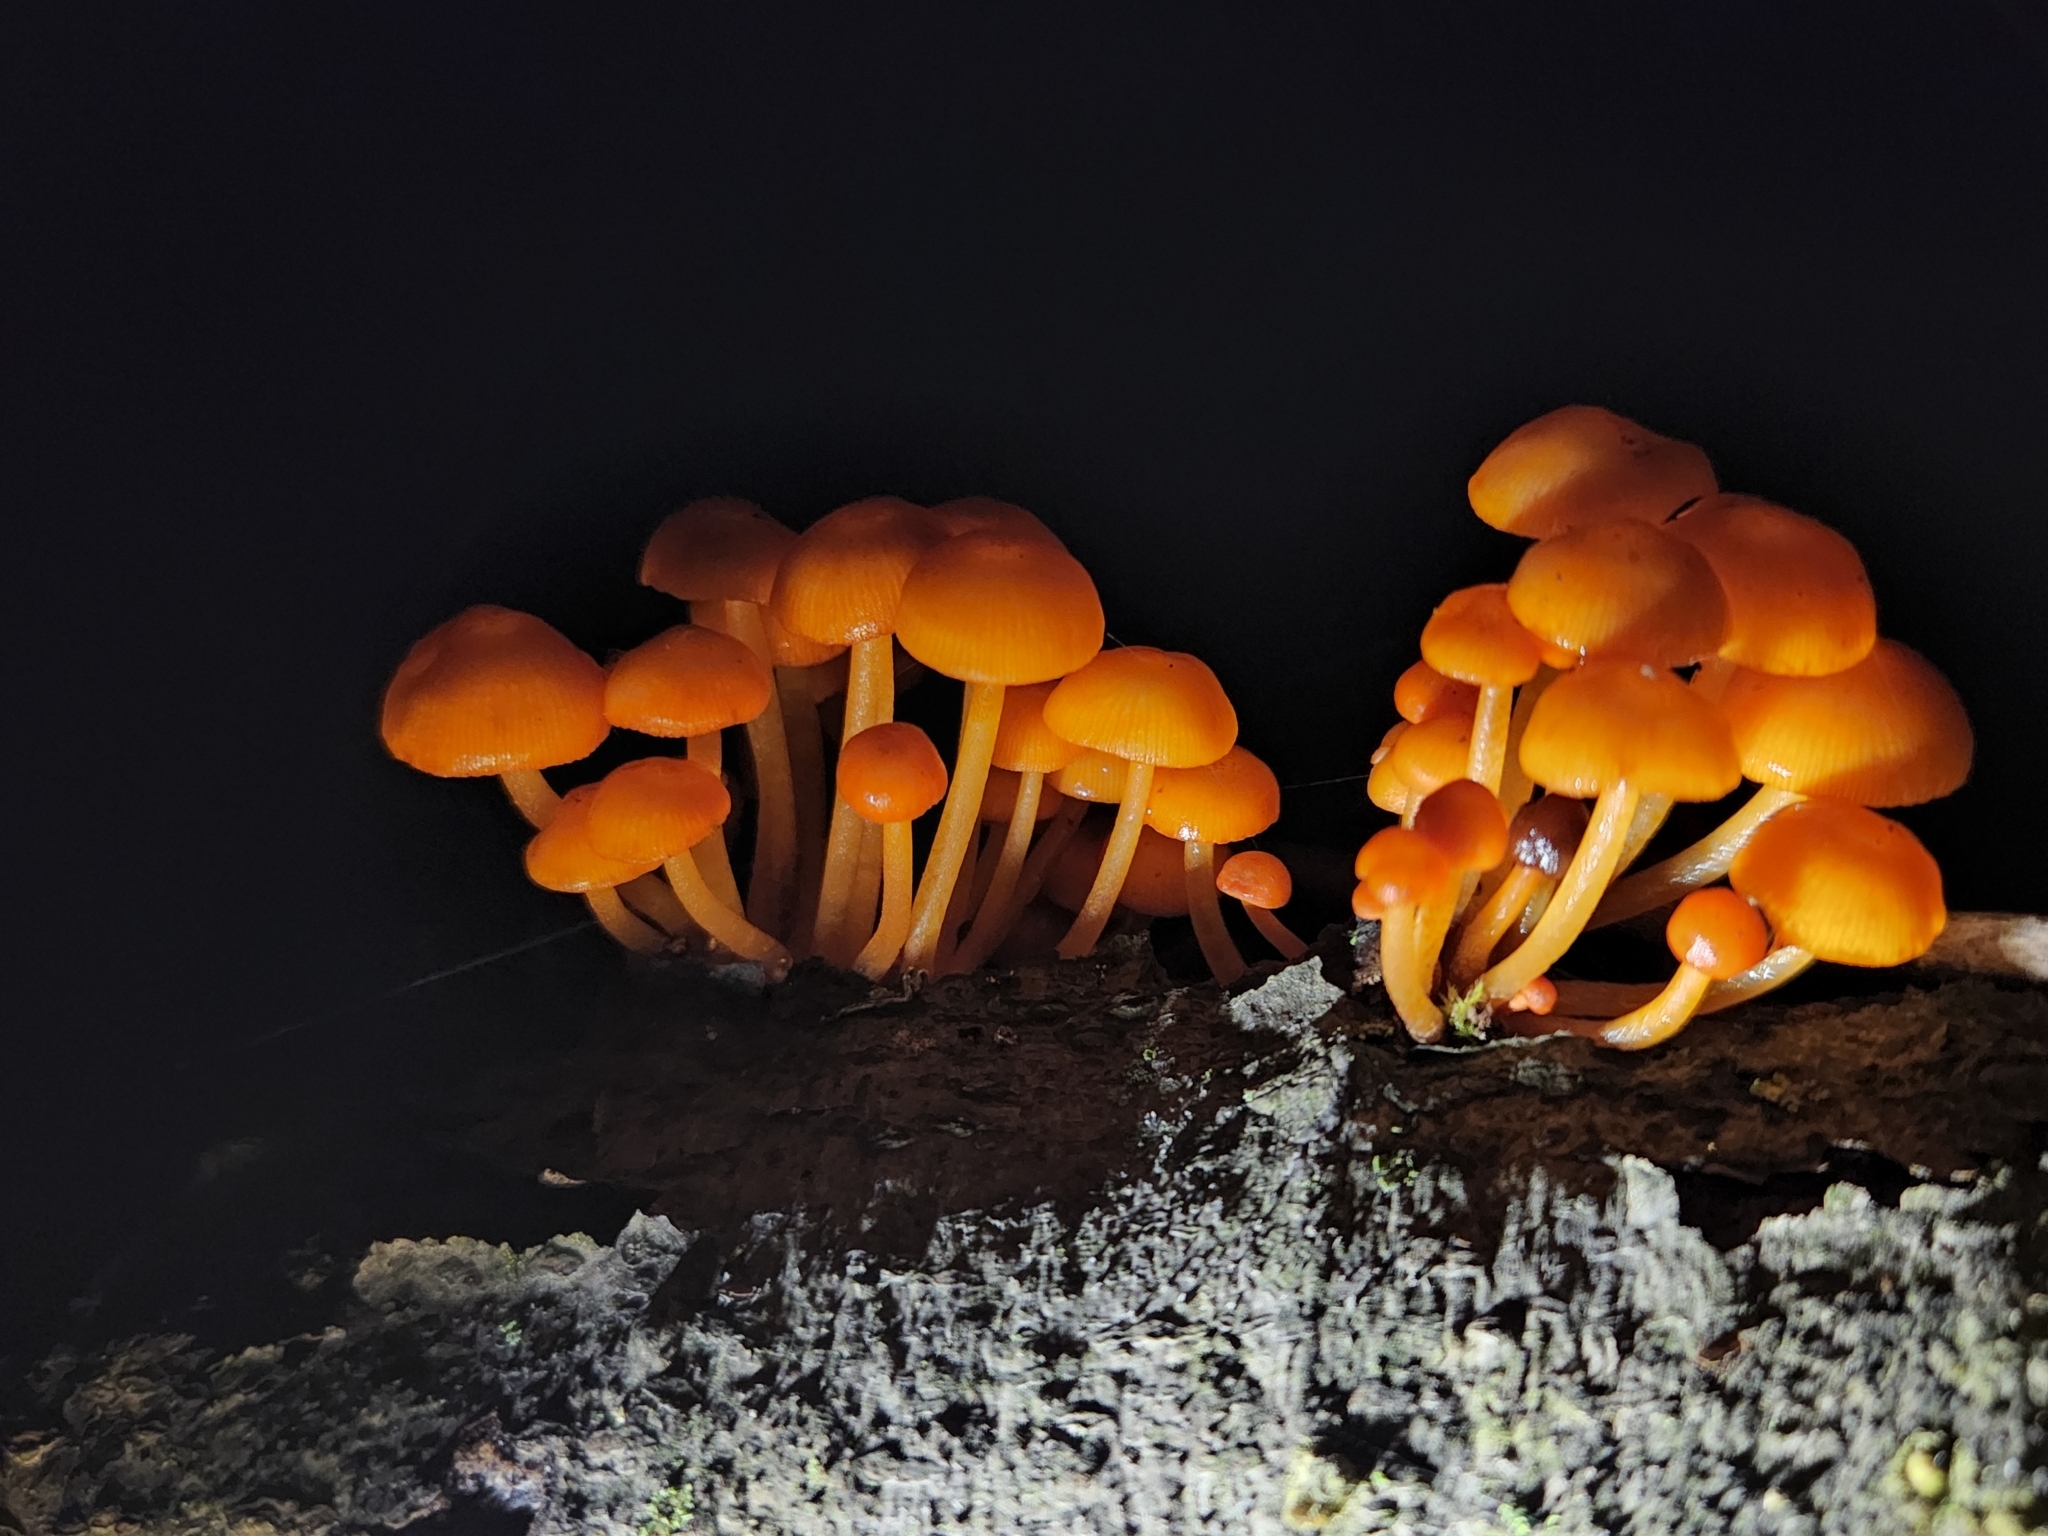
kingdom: Fungi
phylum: Basidiomycota
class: Agaricomycetes
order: Agaricales
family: Mycenaceae
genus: Mycena
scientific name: Mycena leaiana
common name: Orange mycena
